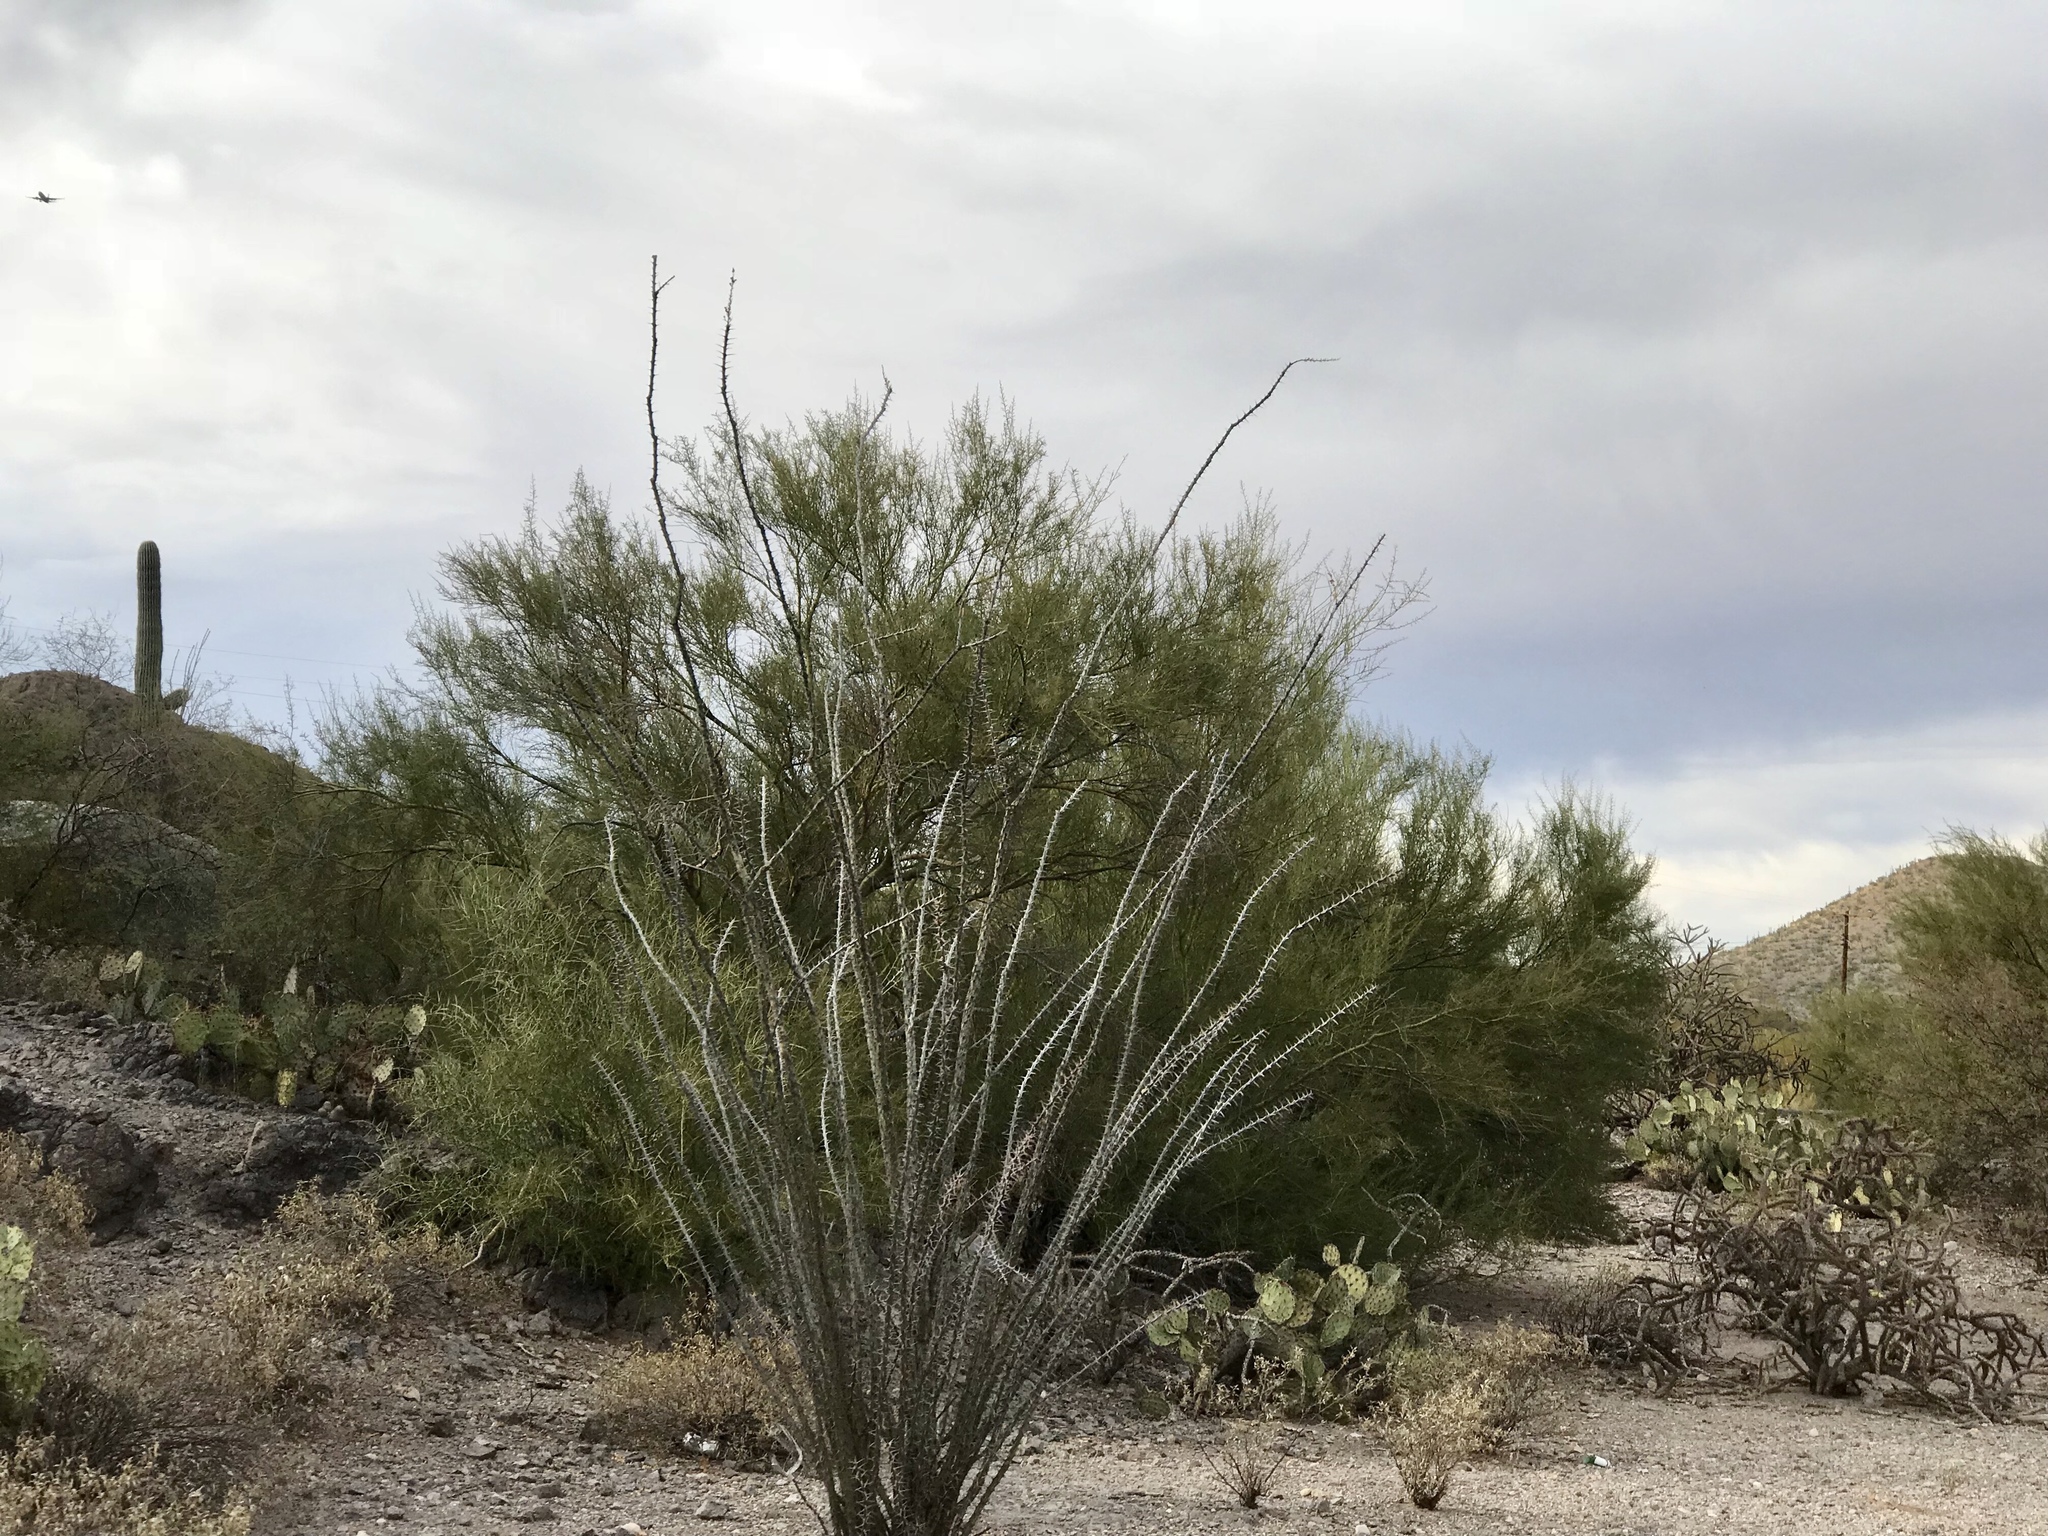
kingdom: Plantae
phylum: Tracheophyta
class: Magnoliopsida
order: Ericales
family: Fouquieriaceae
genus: Fouquieria
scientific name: Fouquieria splendens
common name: Vine-cactus
